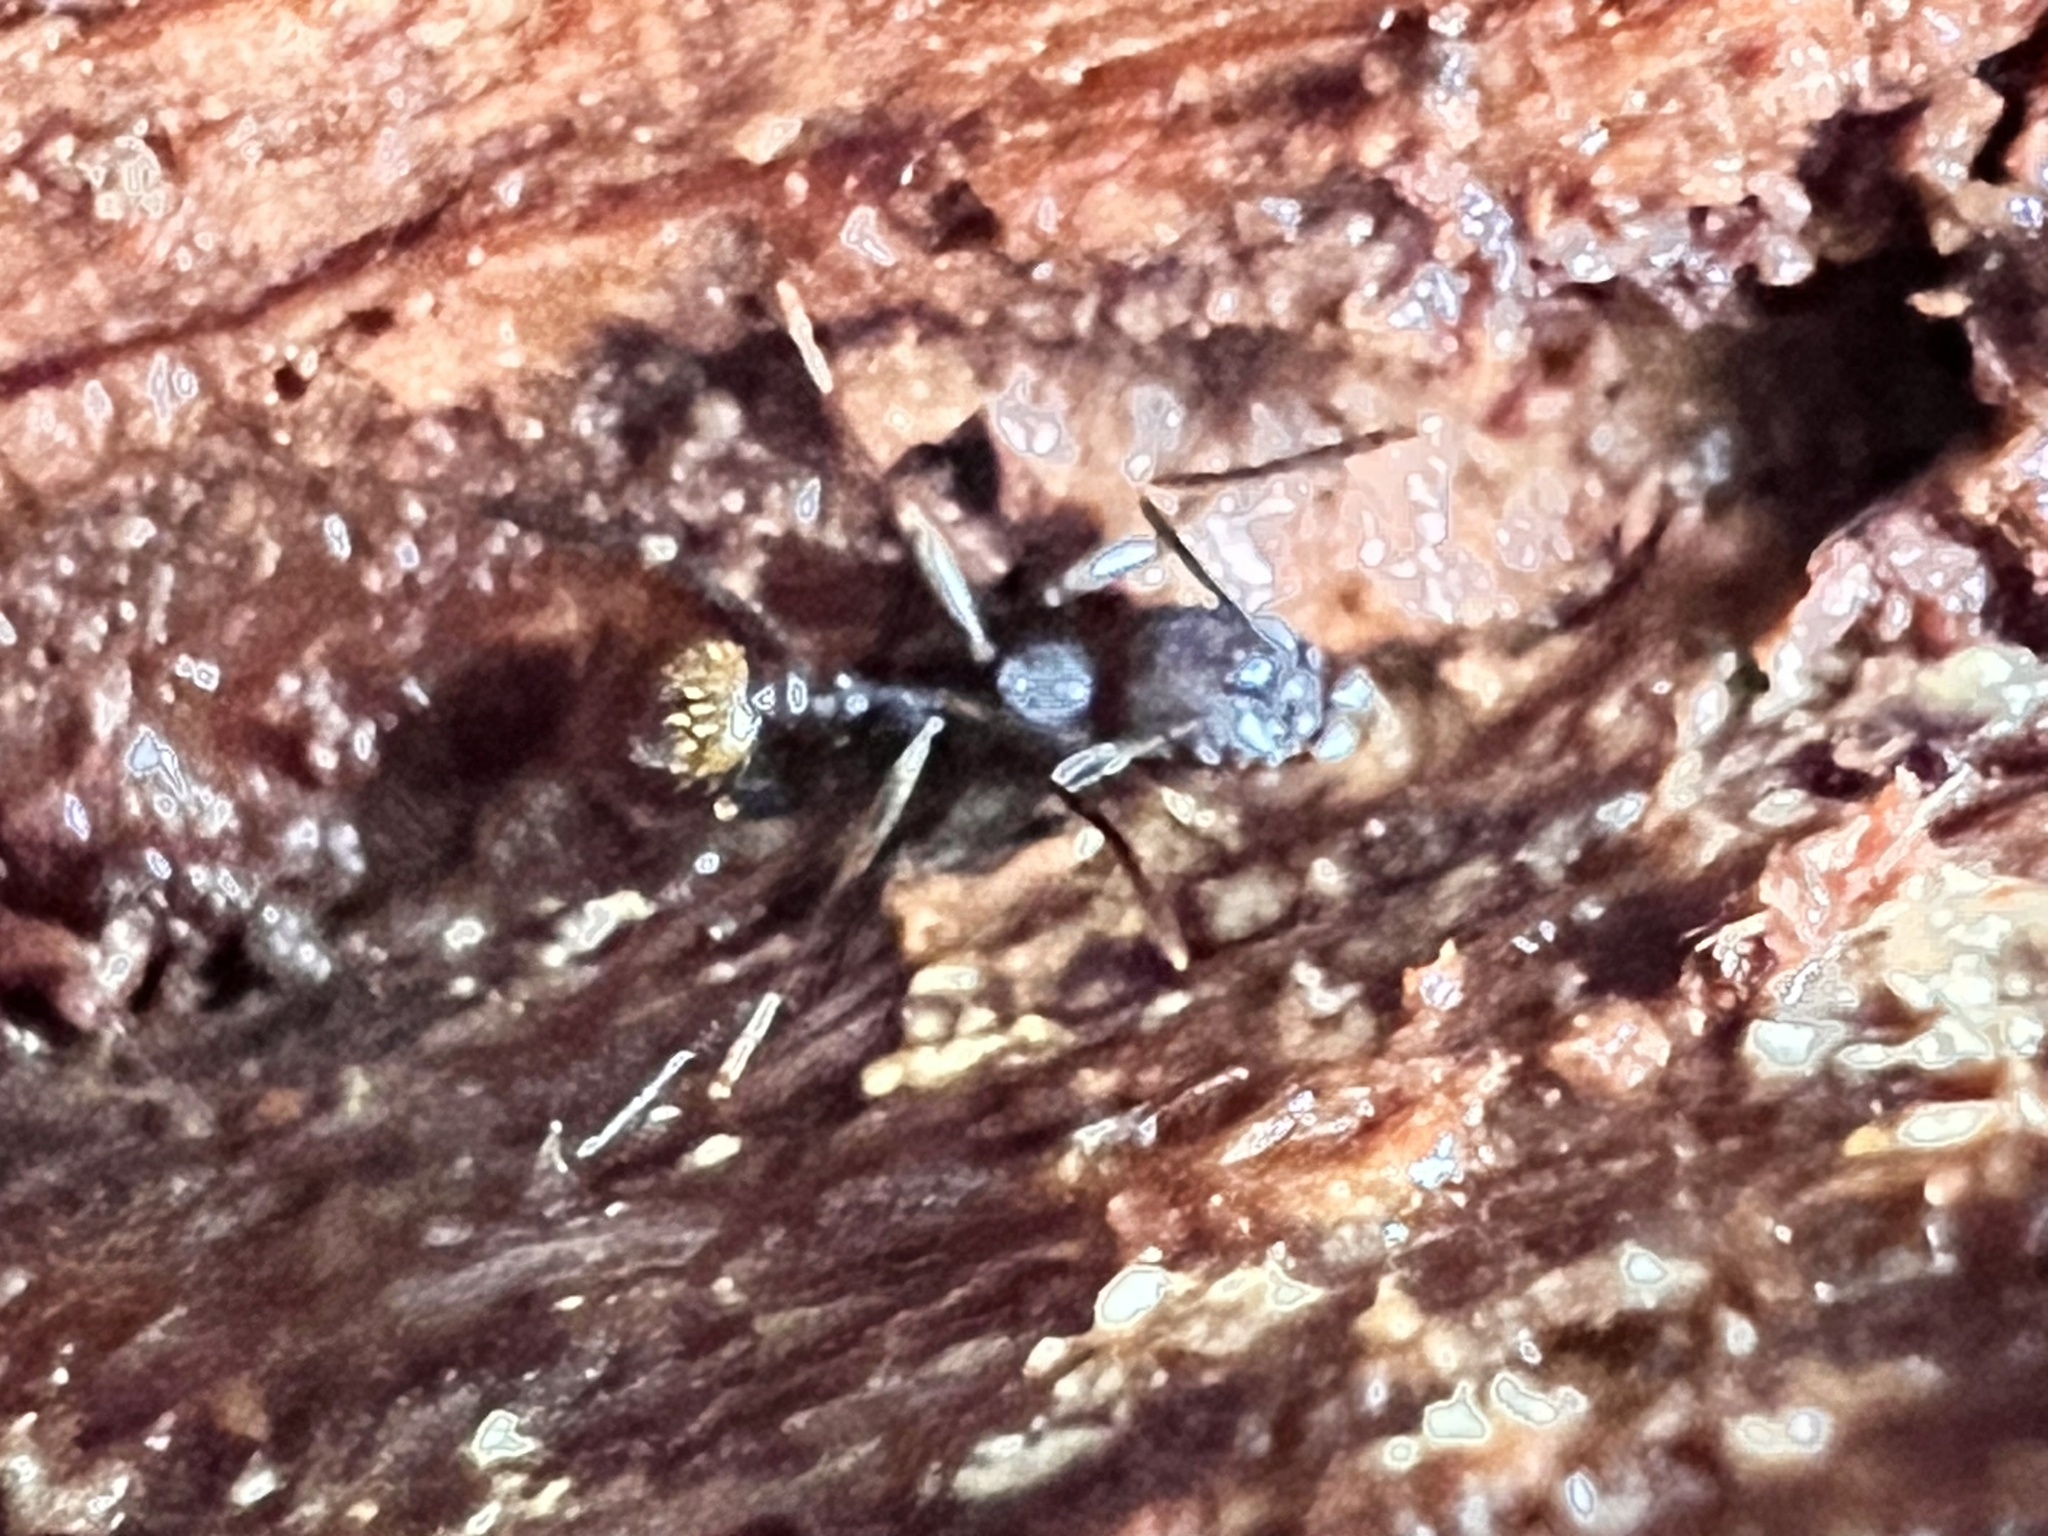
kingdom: Animalia
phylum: Arthropoda
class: Insecta
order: Hymenoptera
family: Formicidae
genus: Aphaenogaster
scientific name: Aphaenogaster fulva
